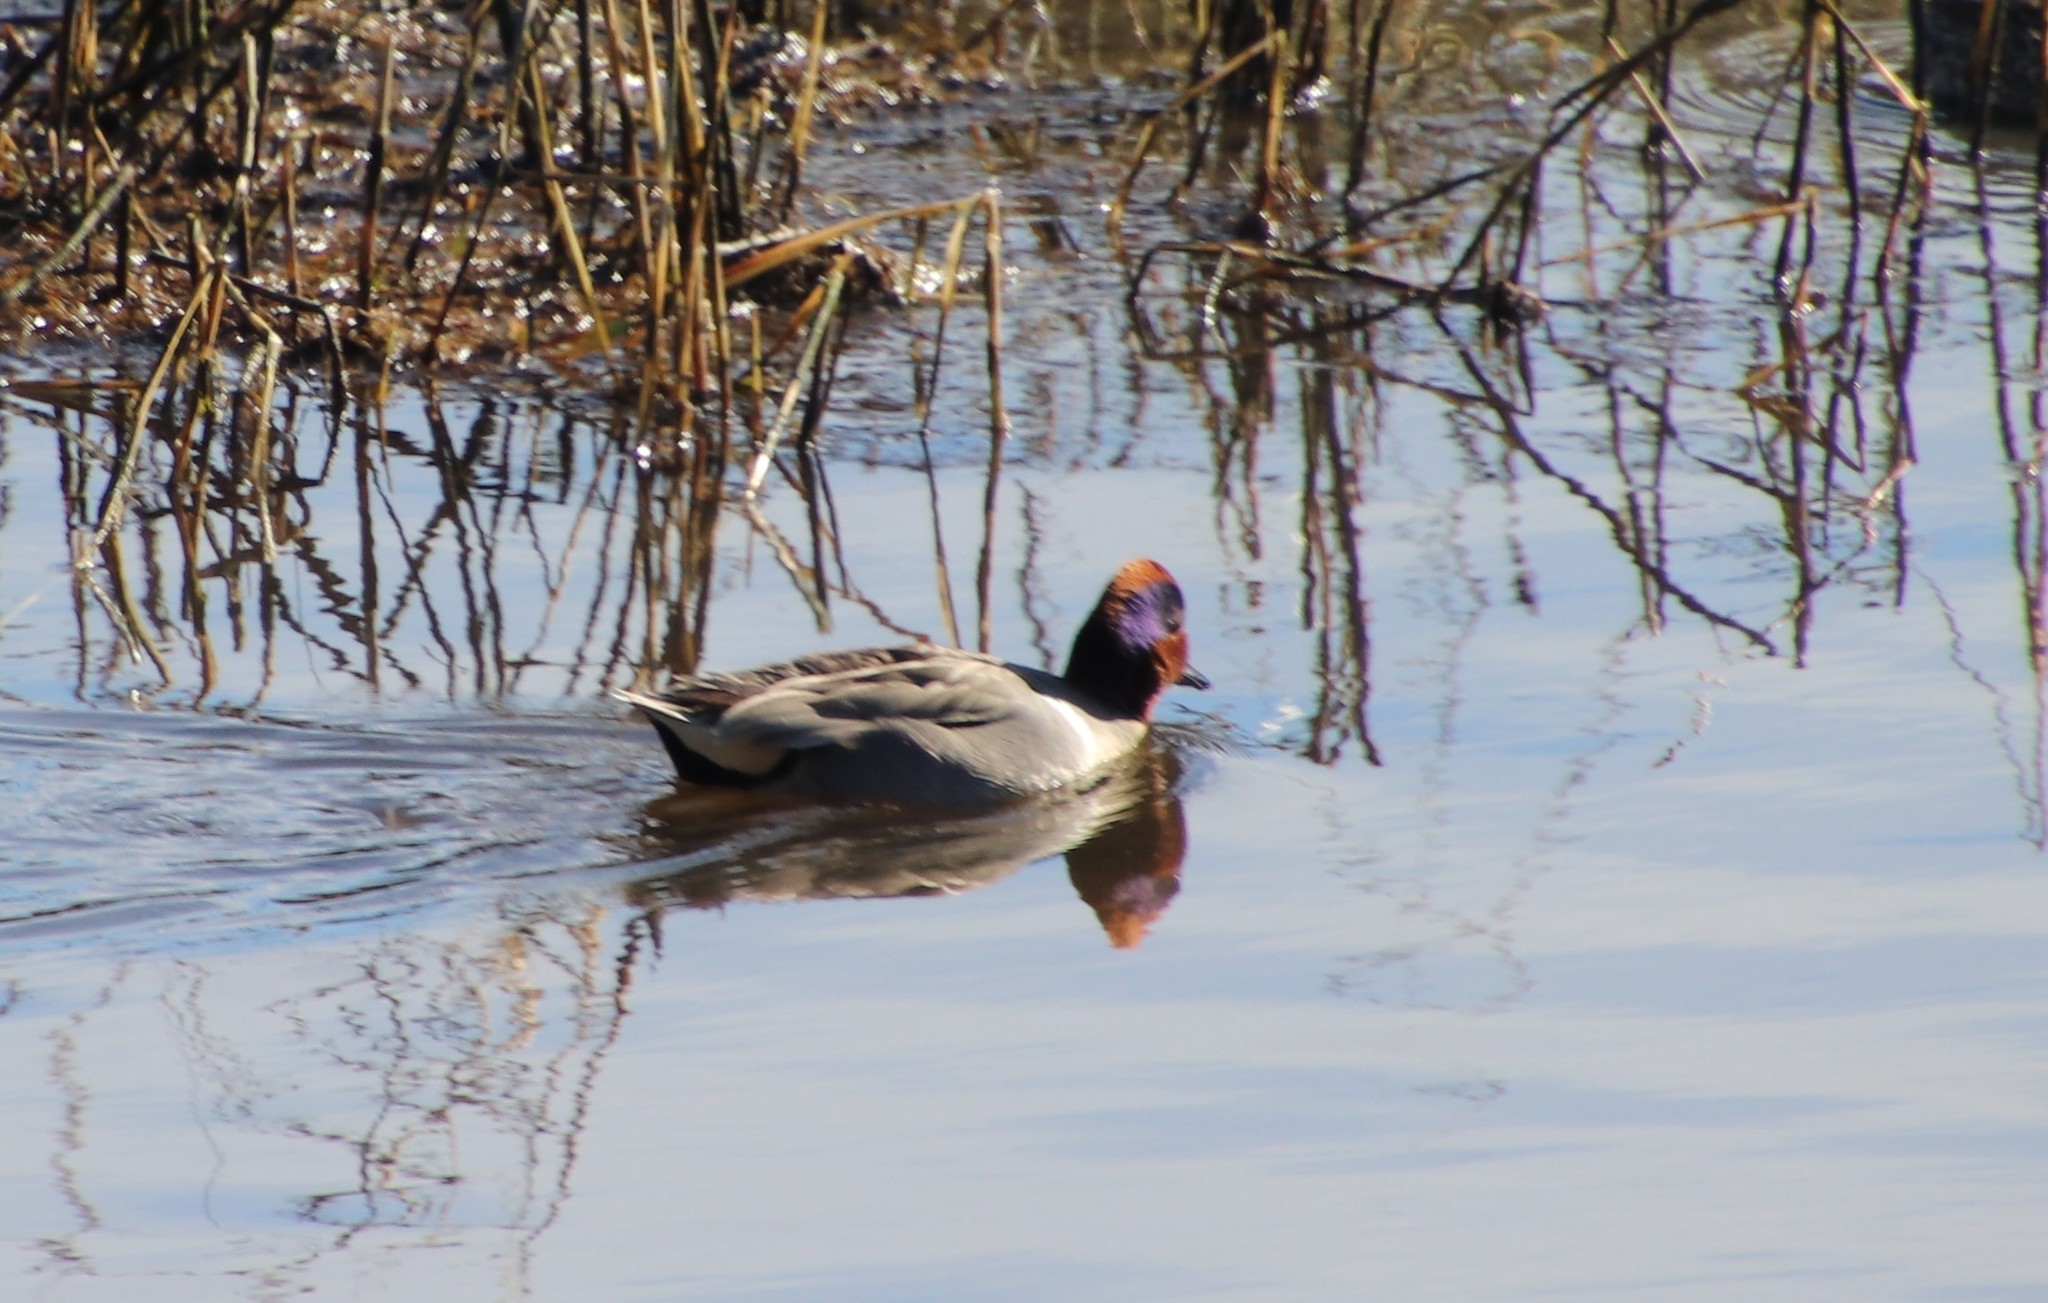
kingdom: Animalia
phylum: Chordata
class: Aves
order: Anseriformes
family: Anatidae
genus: Anas
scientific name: Anas crecca
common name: Eurasian teal
